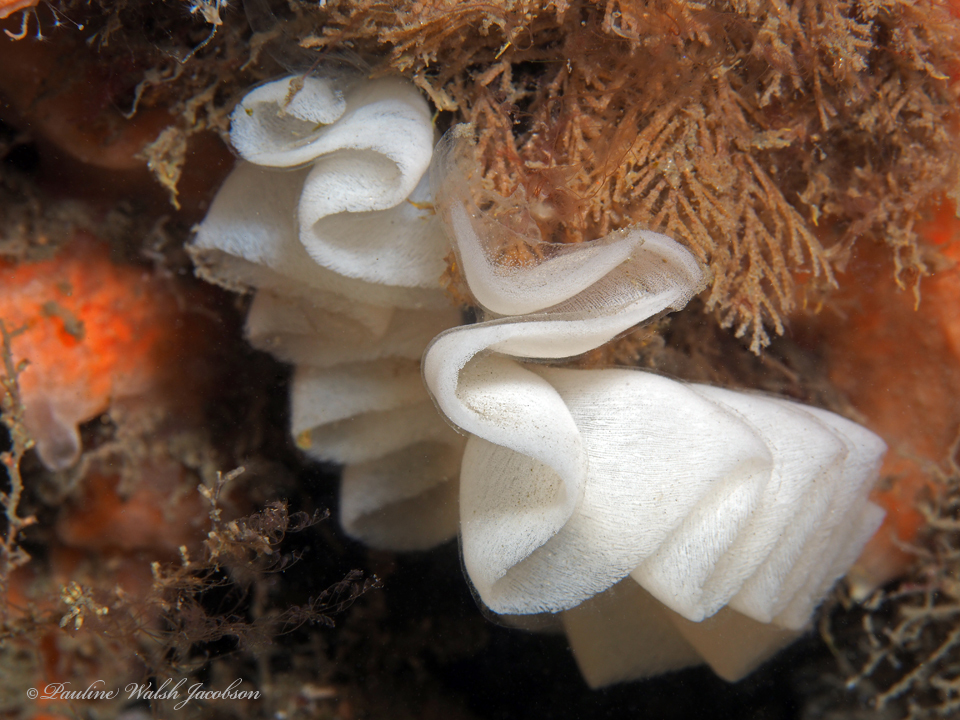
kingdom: Animalia
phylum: Mollusca
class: Gastropoda
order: Pleurobranchida
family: Pleurobranchidae
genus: Pleurobranchus
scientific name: Pleurobranchus areolatus
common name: Atlantic sidegill slug
